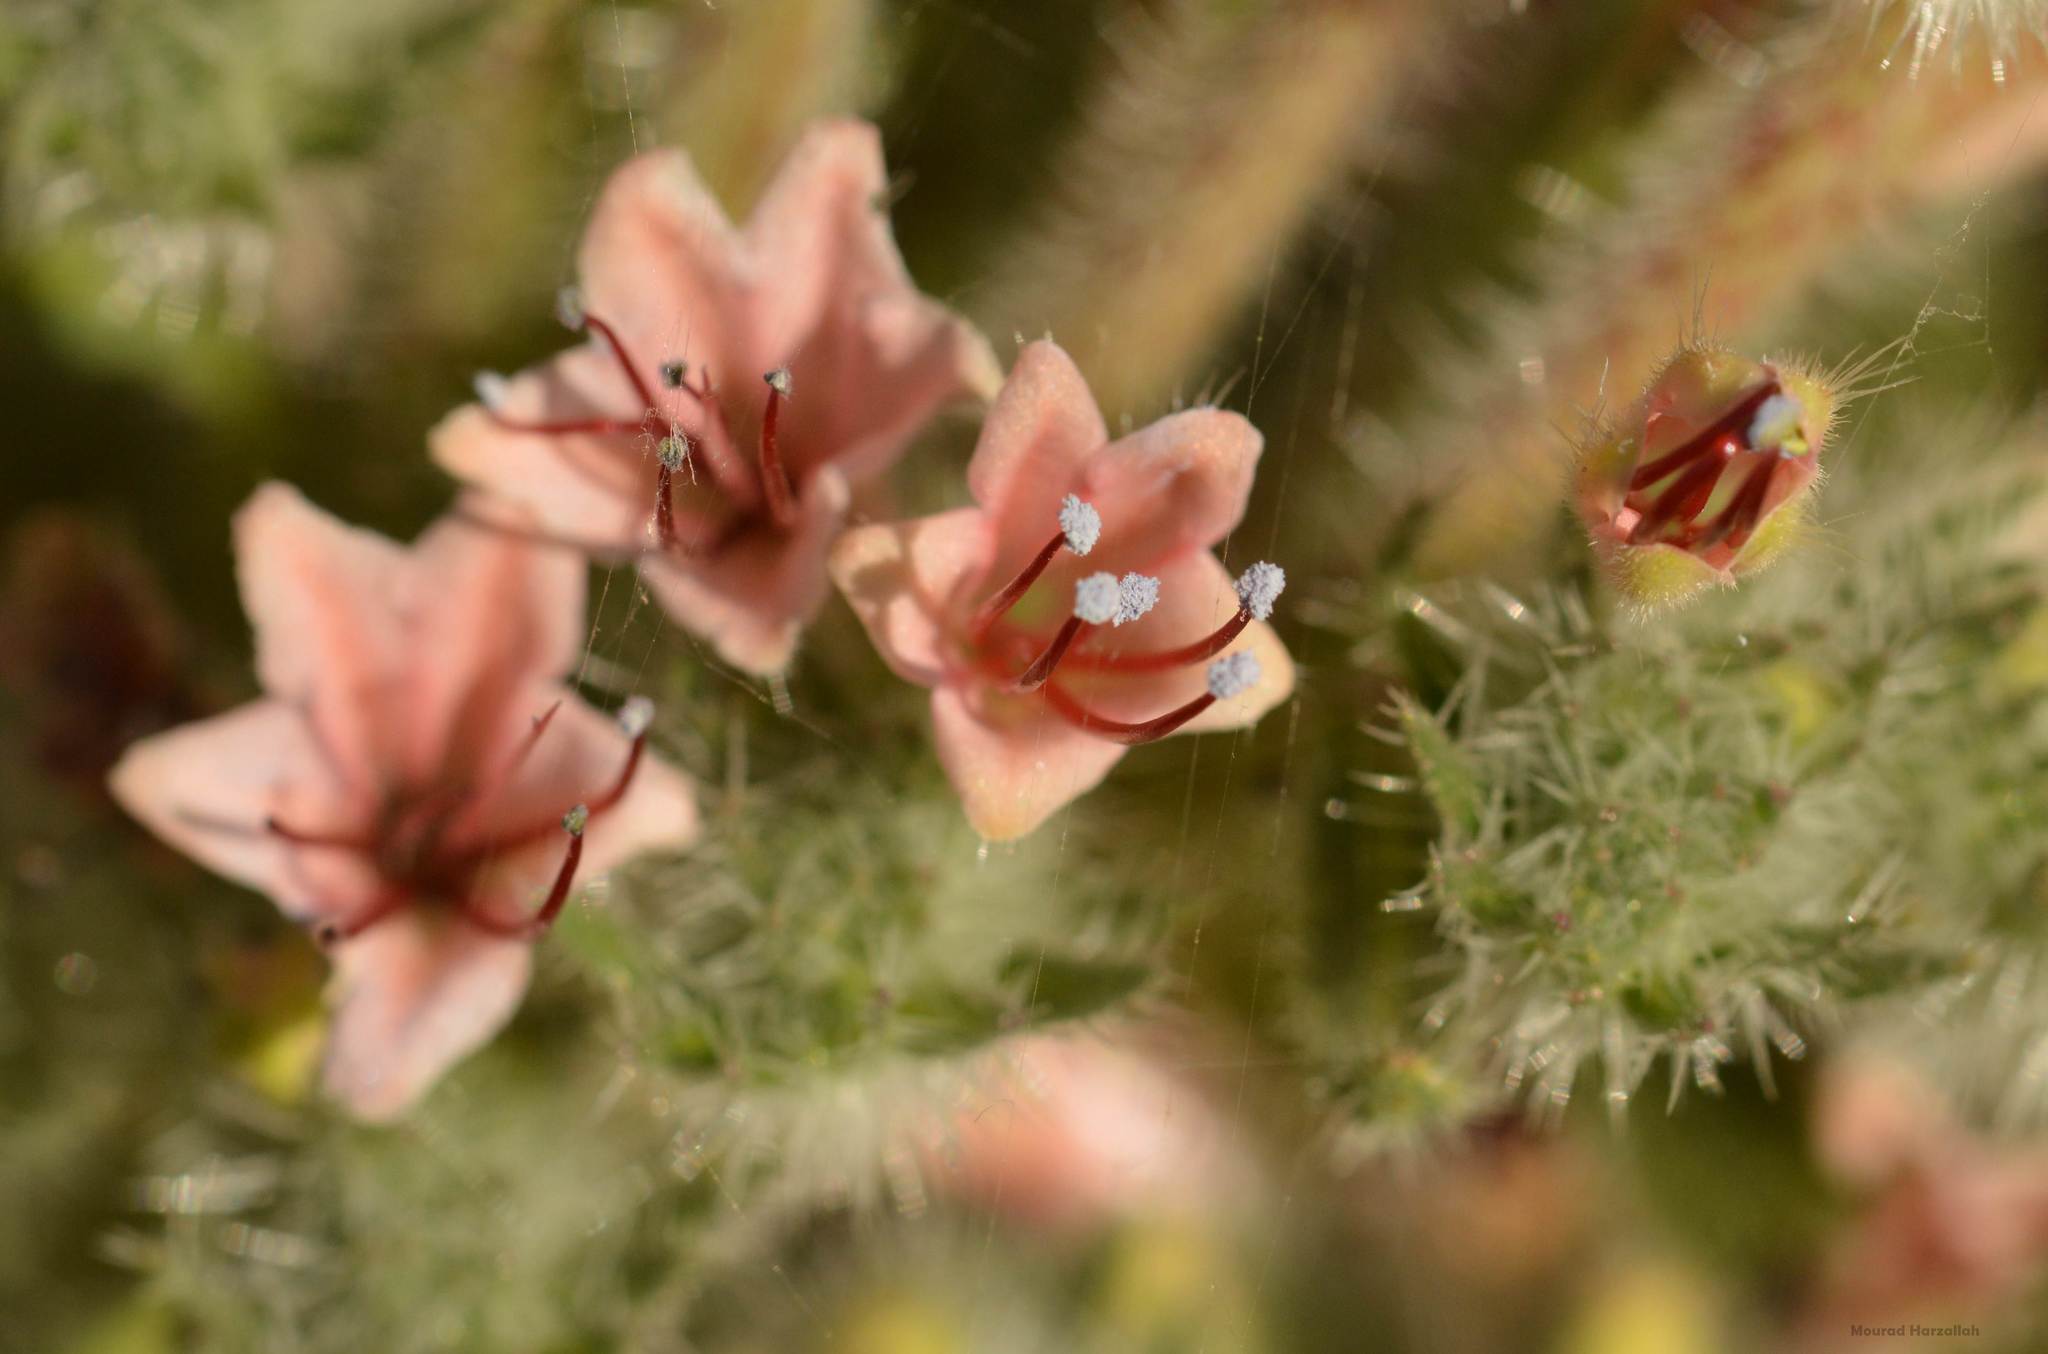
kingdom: Plantae
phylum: Tracheophyta
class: Magnoliopsida
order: Boraginales
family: Boraginaceae
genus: Echium
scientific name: Echium asperrimum
